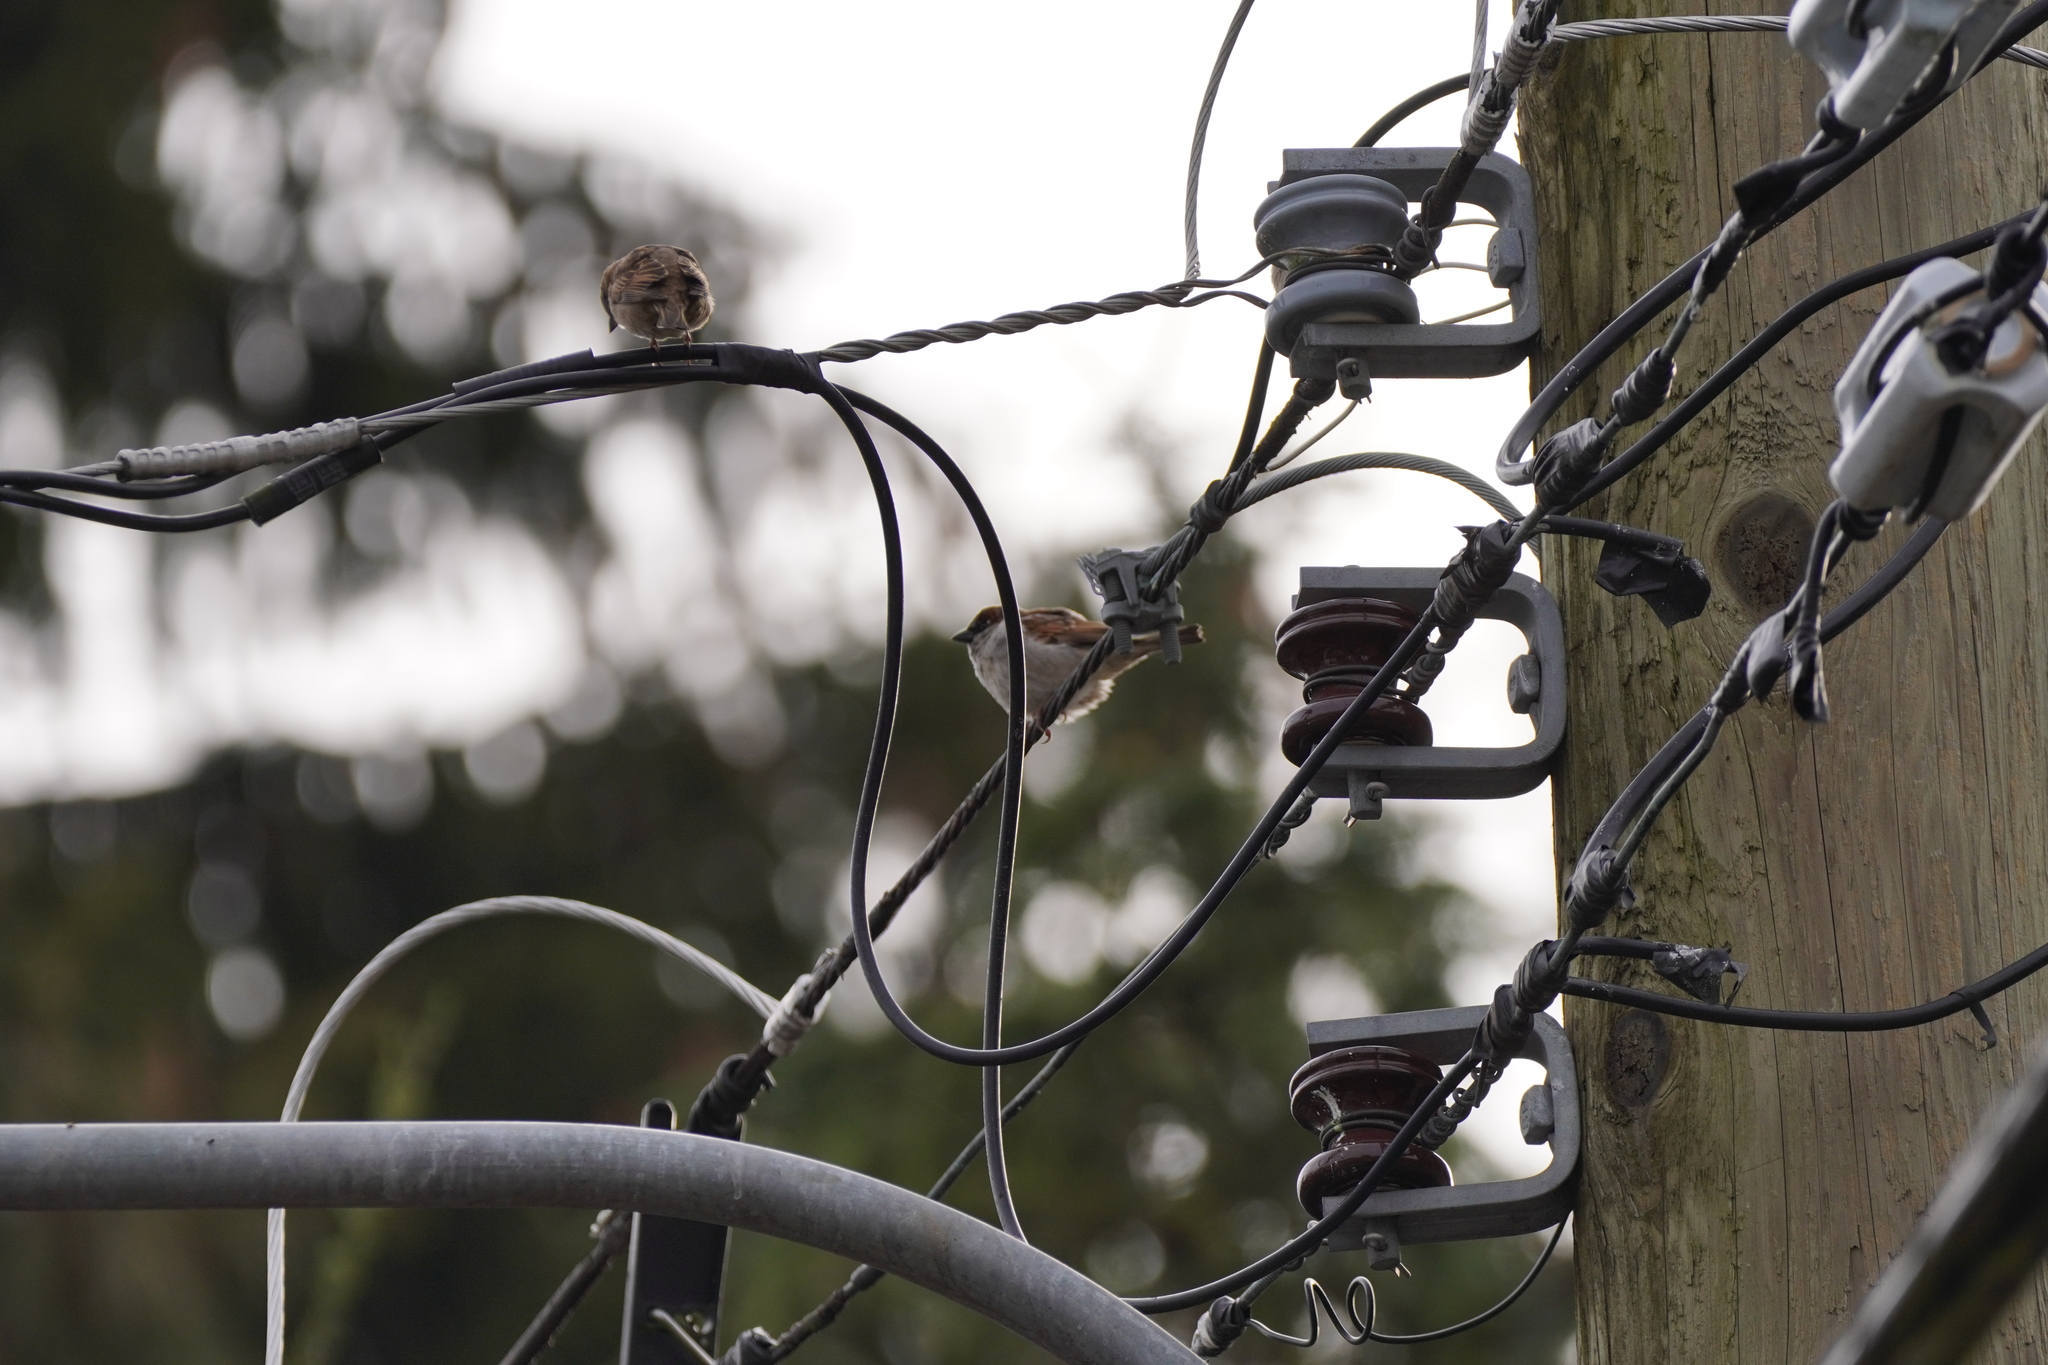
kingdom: Animalia
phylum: Chordata
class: Aves
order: Passeriformes
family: Passeridae
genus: Passer
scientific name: Passer domesticus
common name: House sparrow
